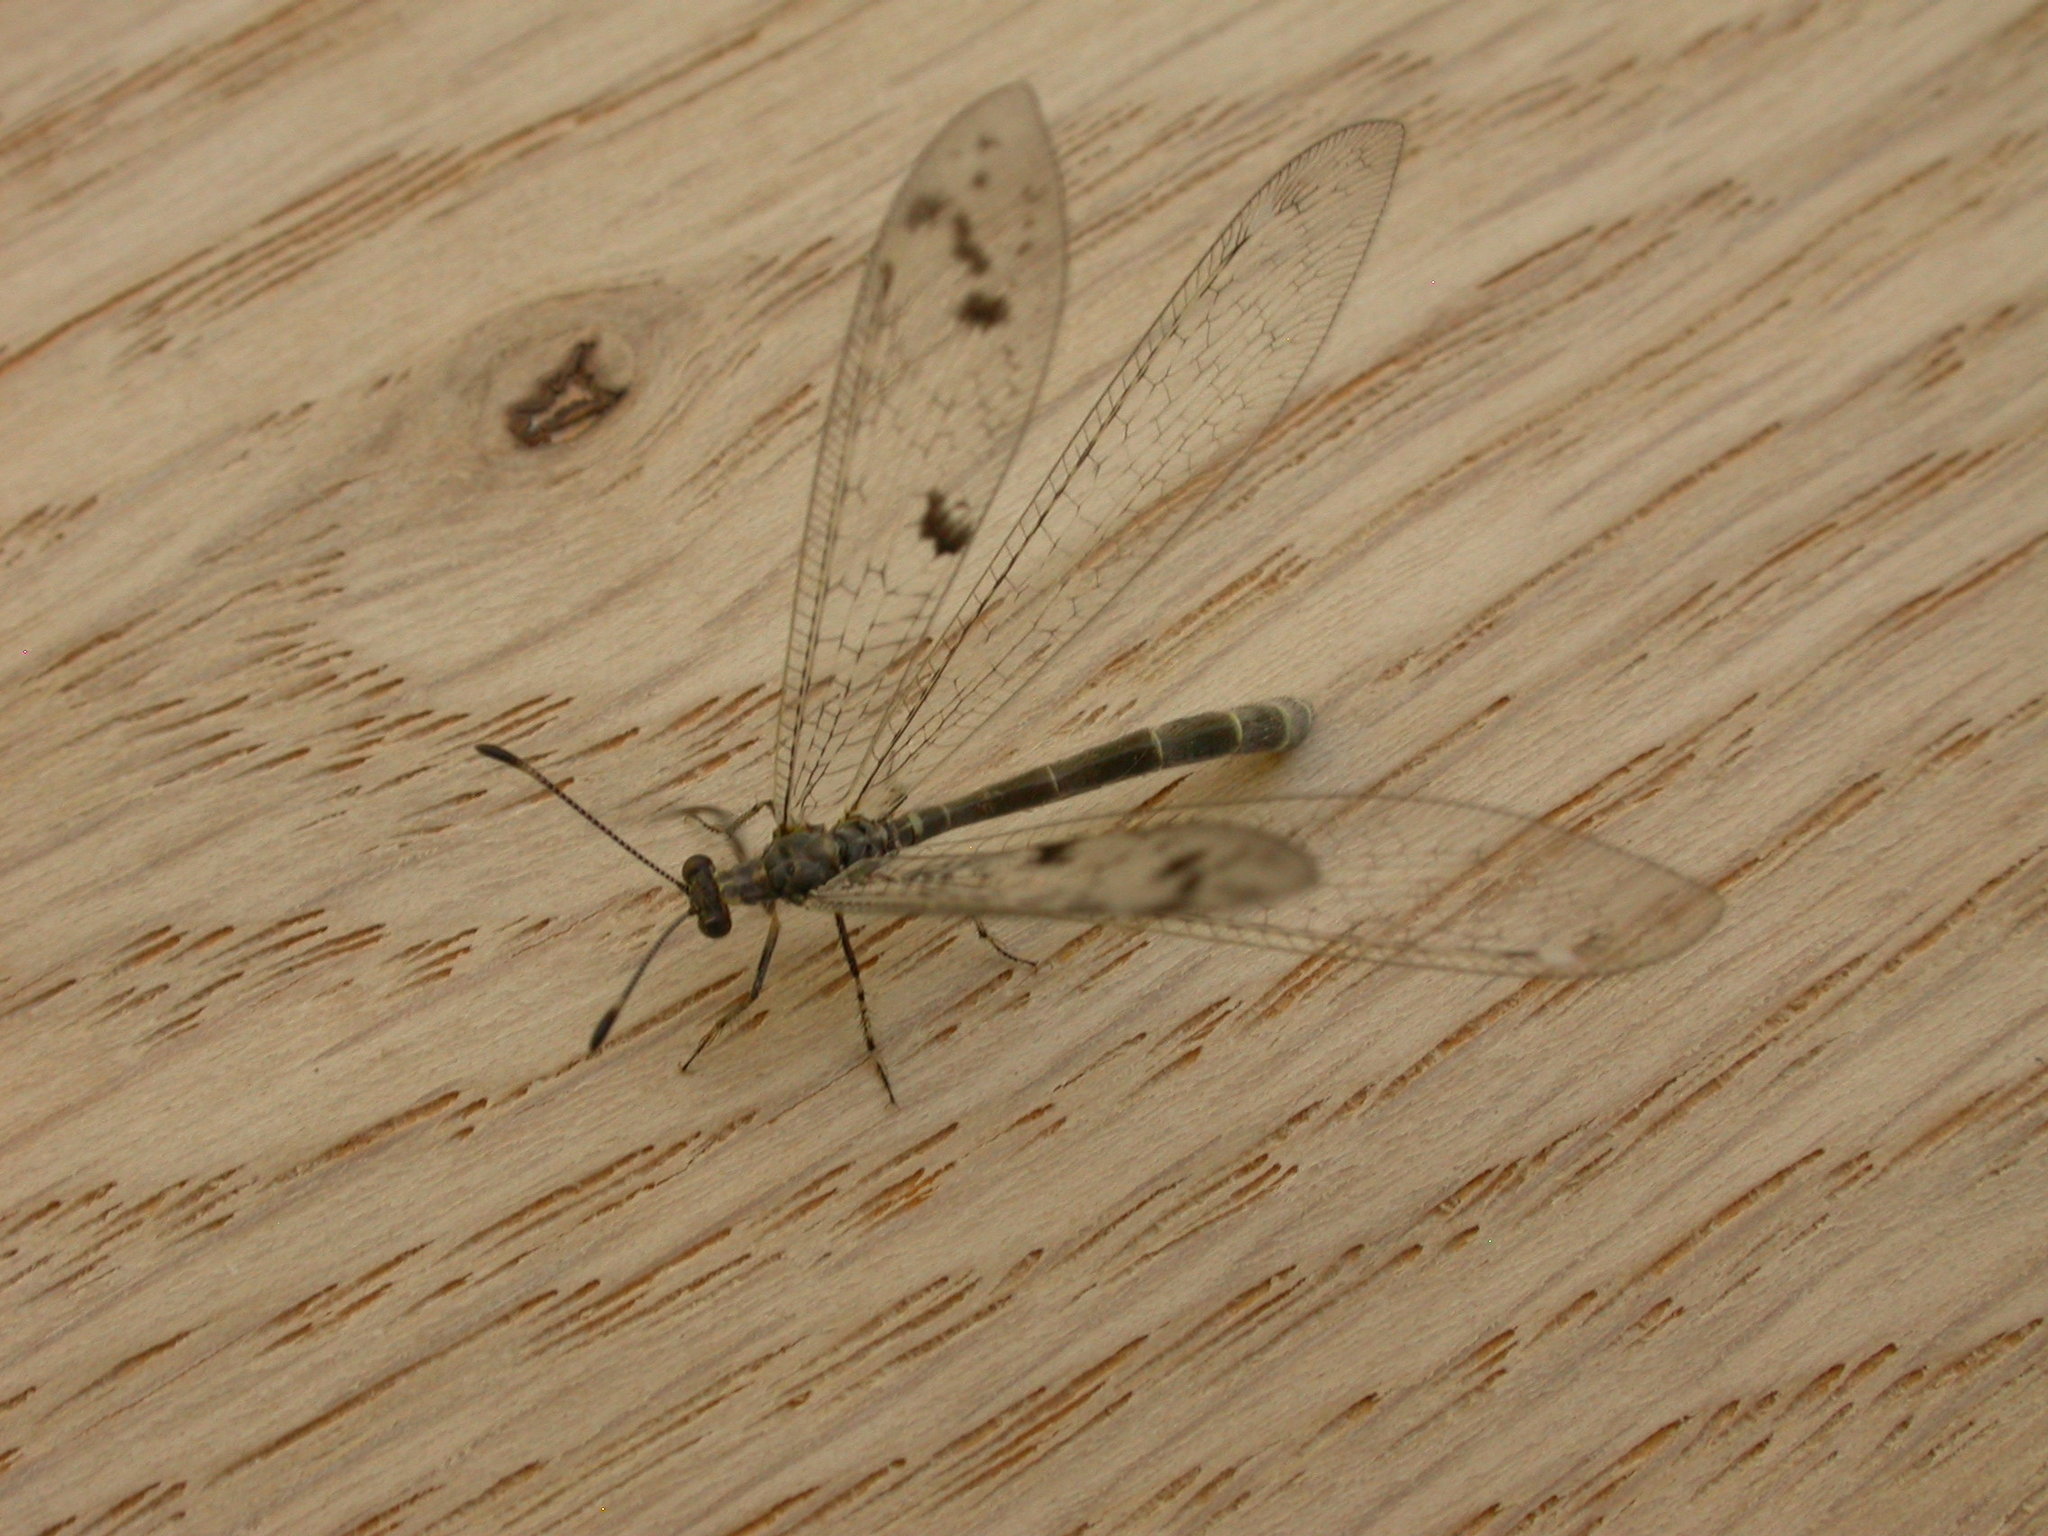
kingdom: Animalia
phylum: Arthropoda
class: Insecta
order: Neuroptera
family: Myrmeleontidae
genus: Bandidus
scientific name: Bandidus rydalmerensis
